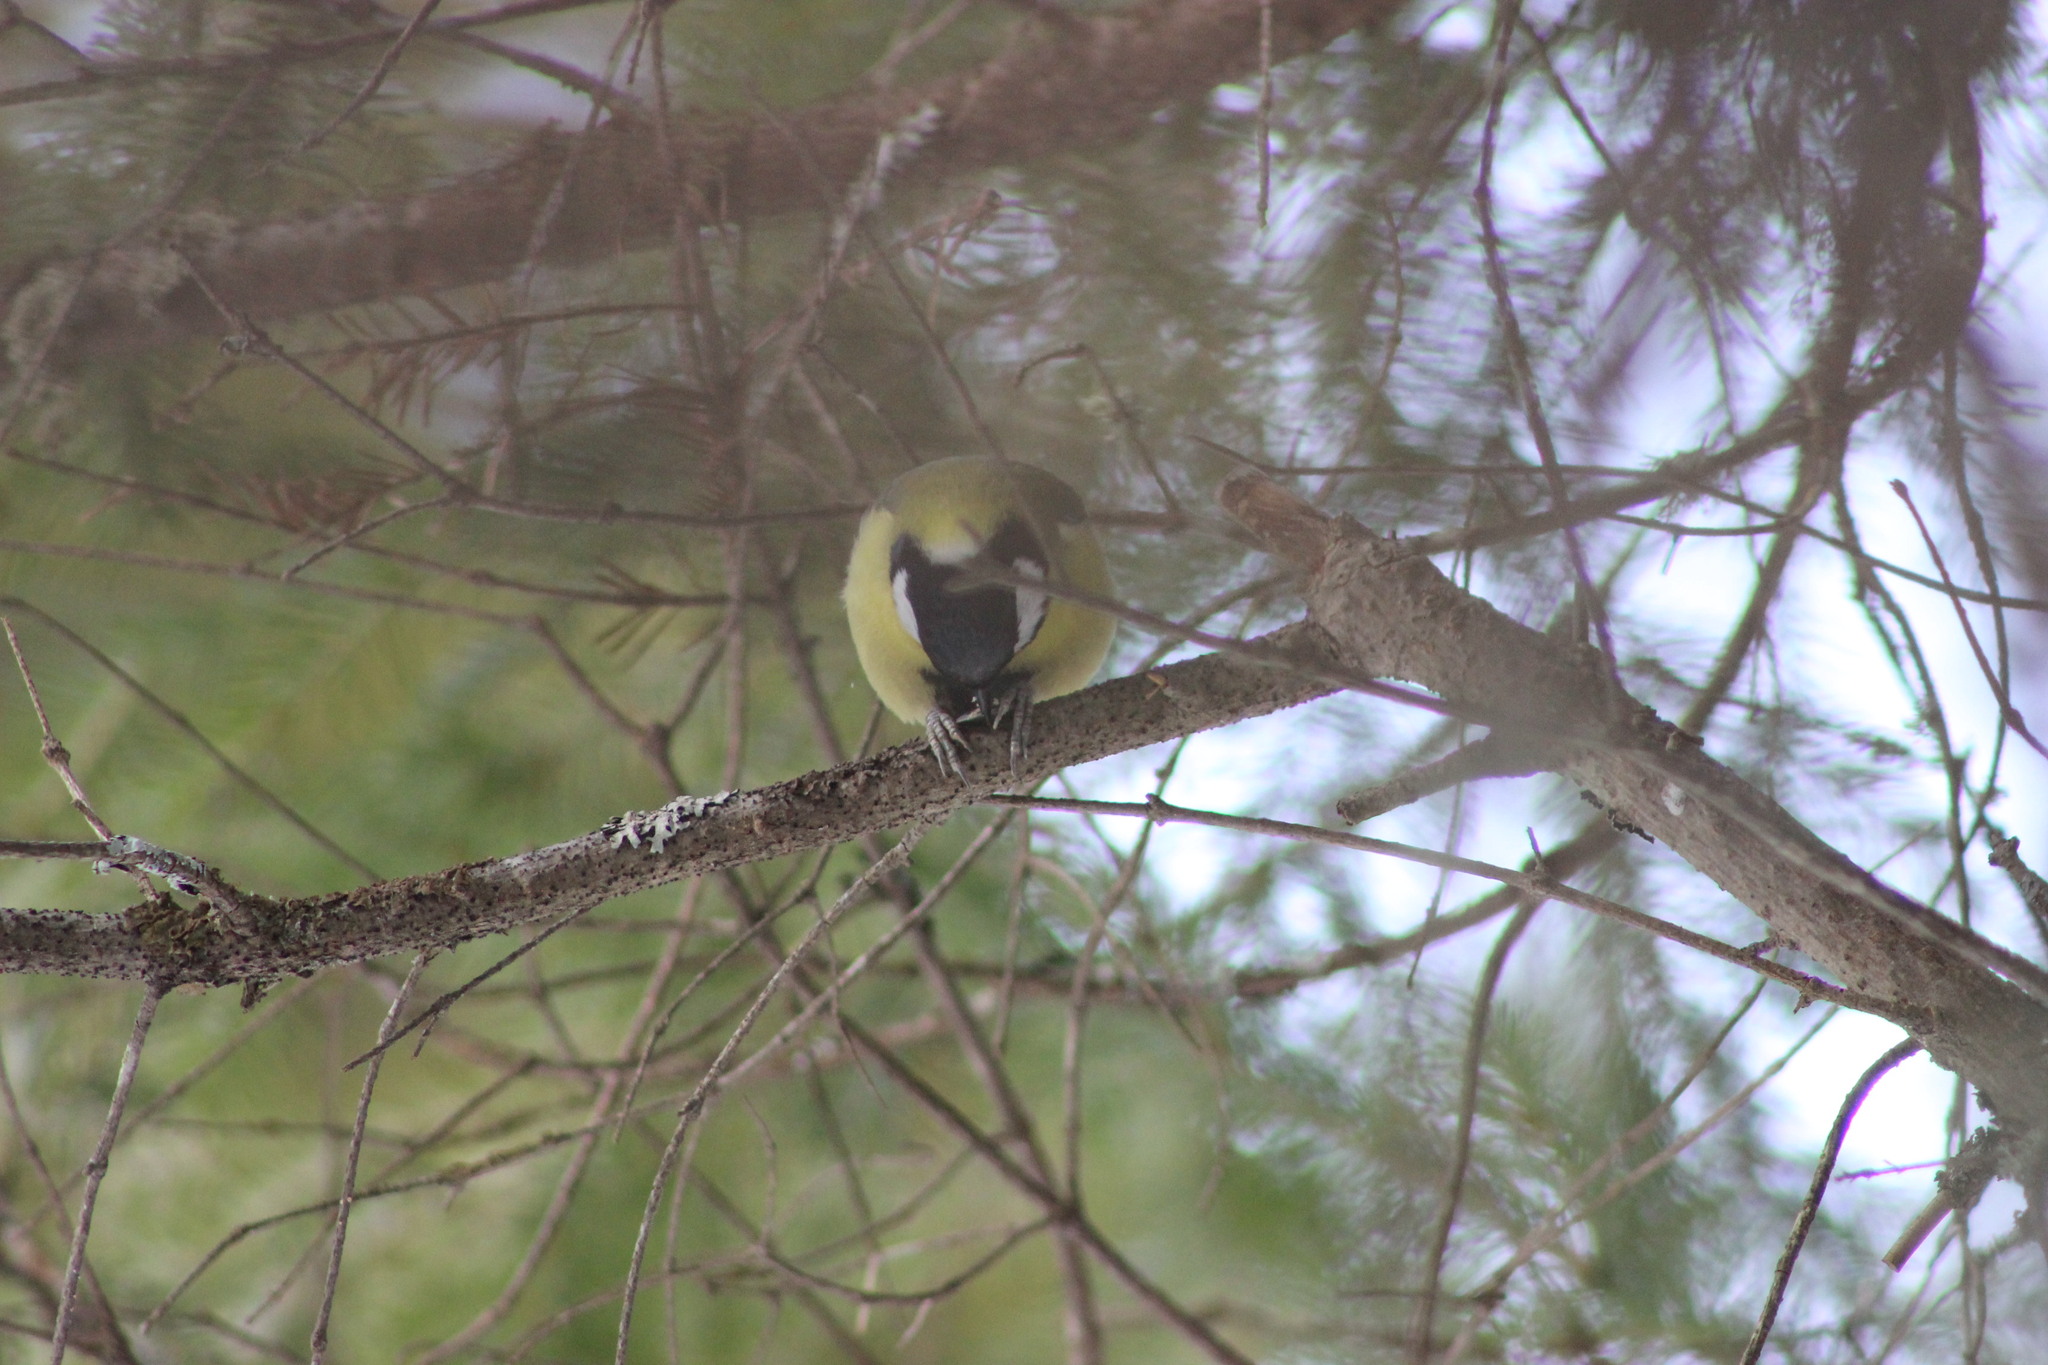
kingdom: Animalia
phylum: Chordata
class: Aves
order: Passeriformes
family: Paridae
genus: Parus
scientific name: Parus major
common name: Great tit
